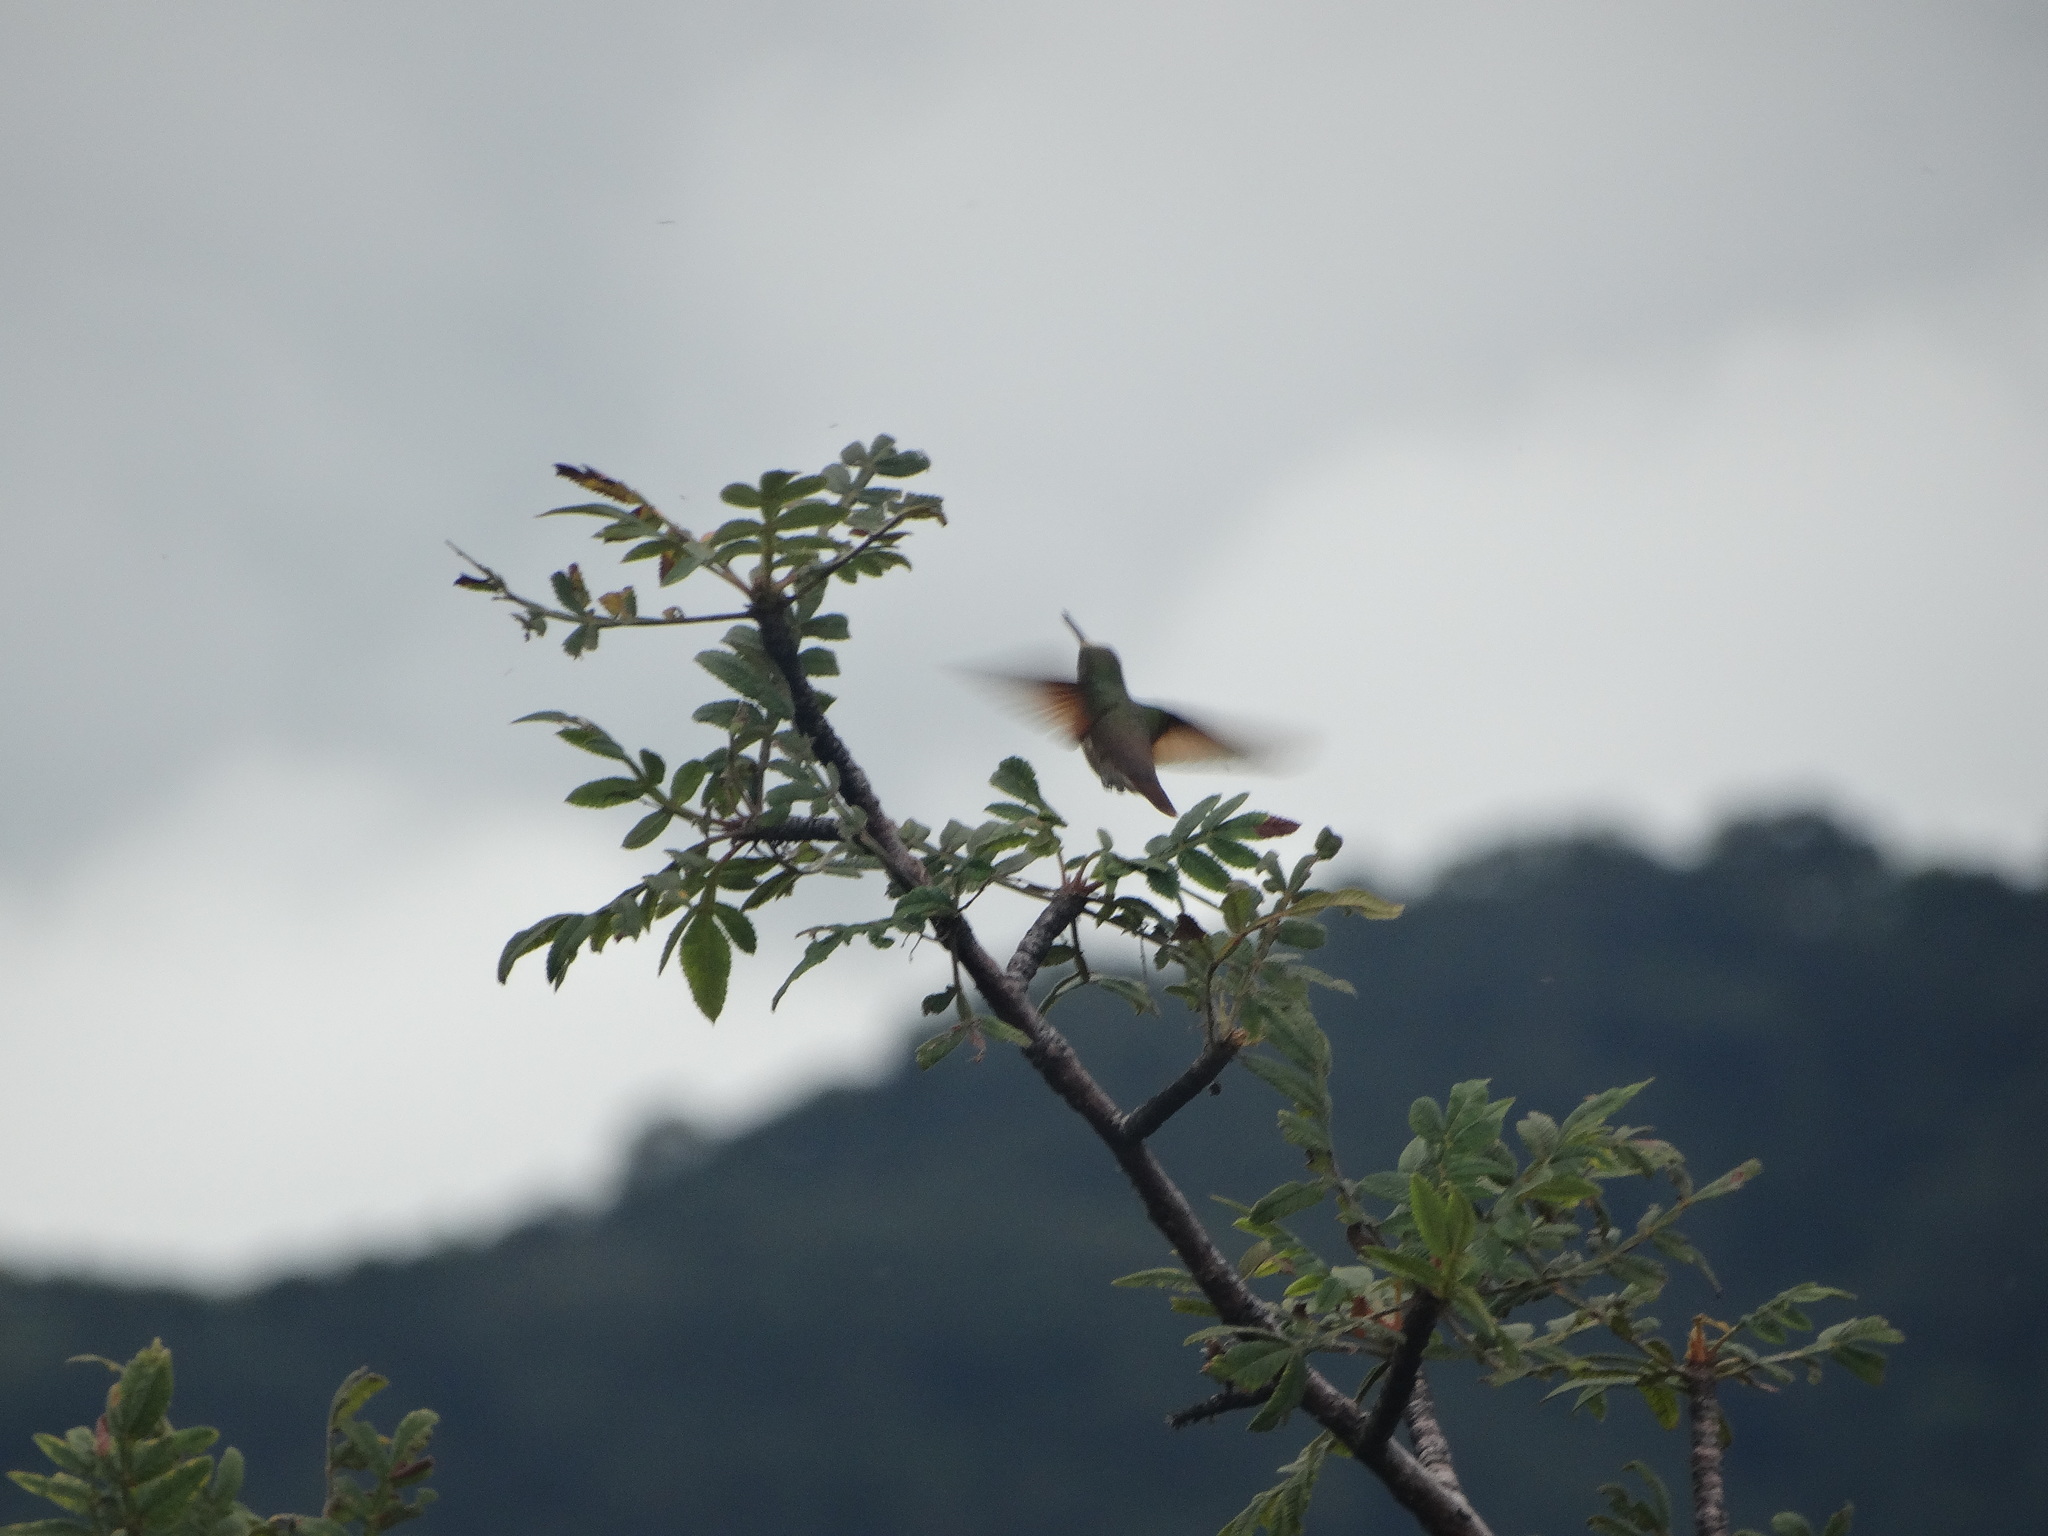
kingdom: Animalia
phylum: Chordata
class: Aves
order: Apodiformes
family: Trochilidae
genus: Saucerottia
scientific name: Saucerottia beryllina
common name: Berylline hummingbird
